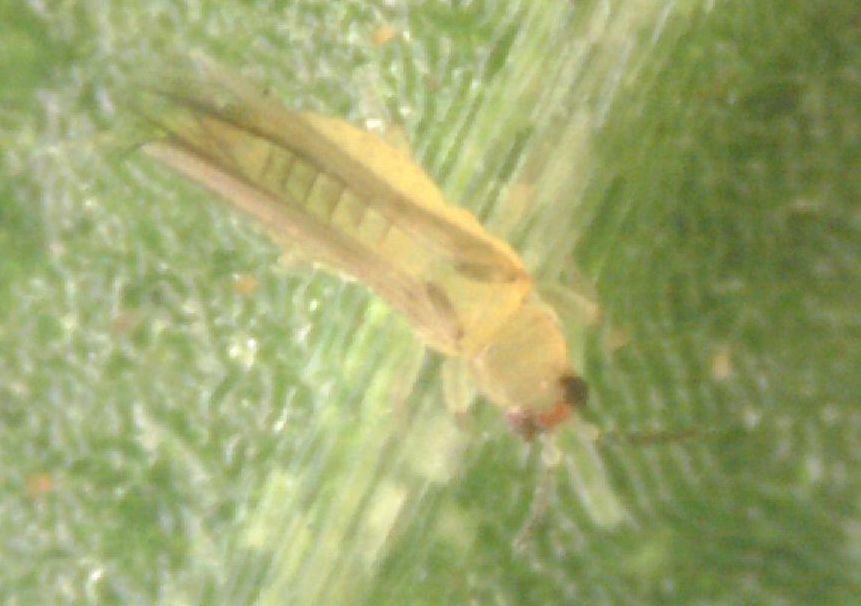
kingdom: Animalia
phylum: Arthropoda
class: Insecta
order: Thysanoptera
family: Thripidae
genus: Scirtothrips
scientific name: Scirtothrips dorsalis
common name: Thrips
